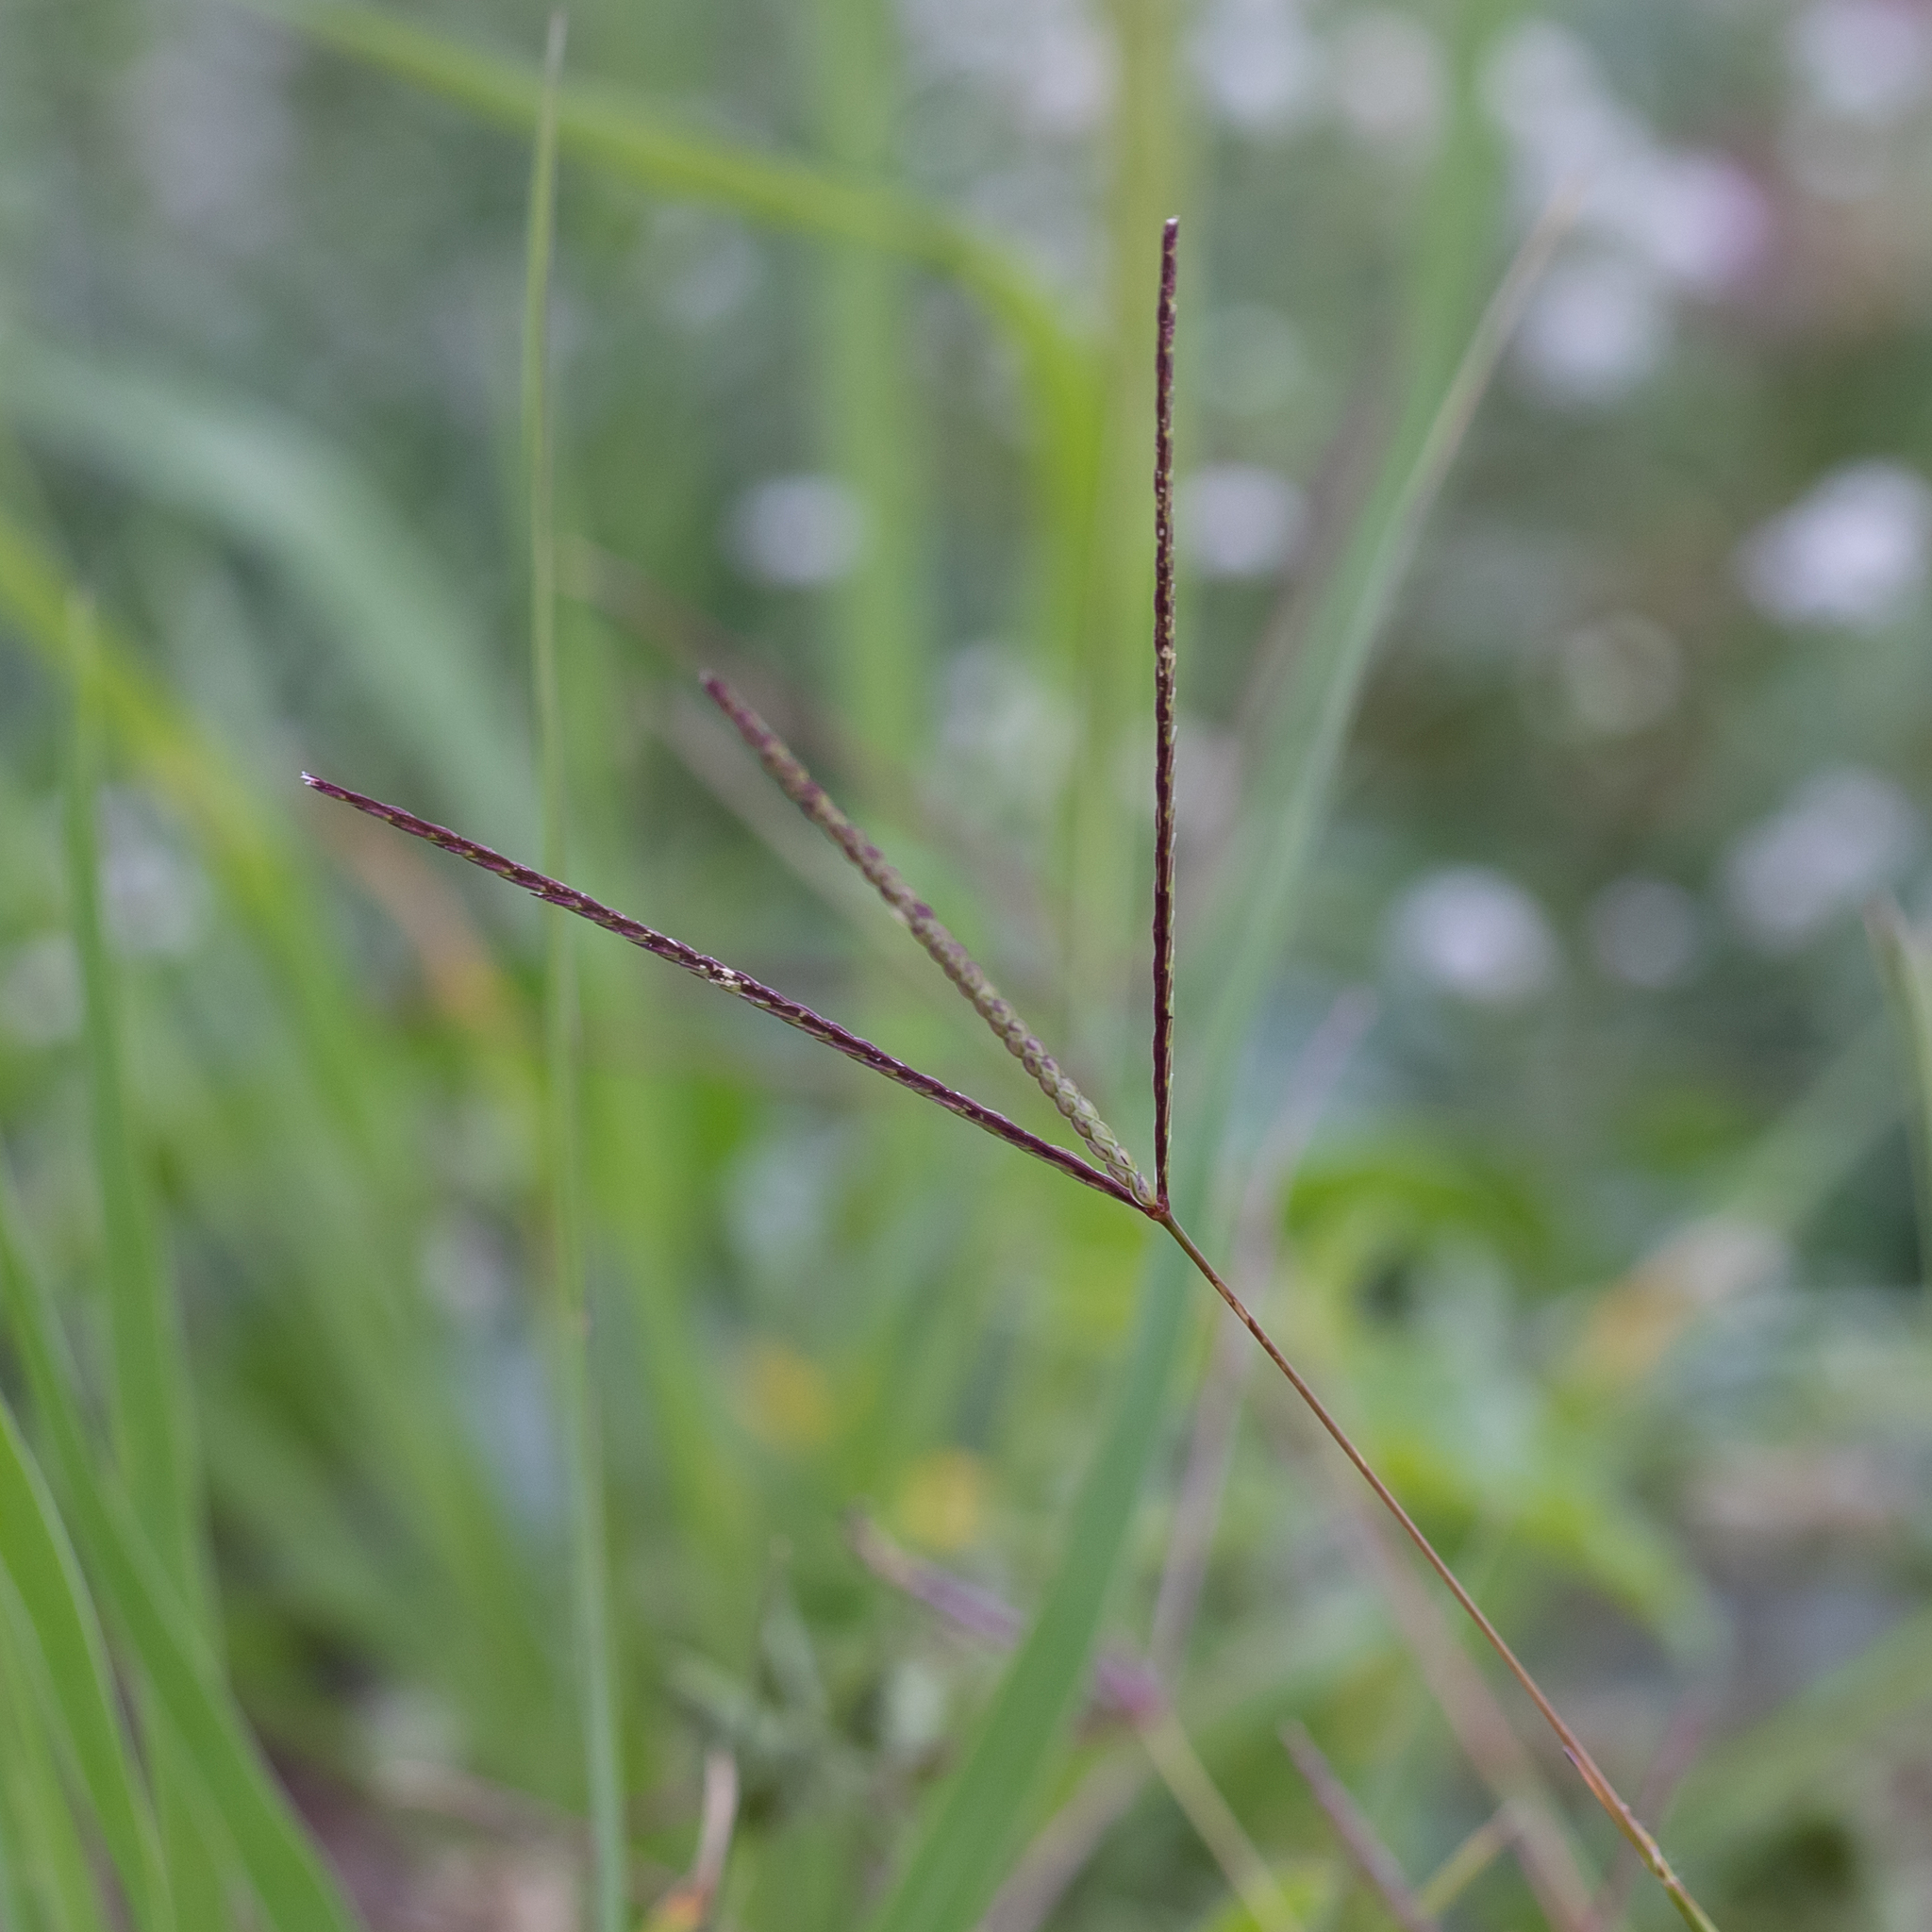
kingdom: Plantae
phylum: Tracheophyta
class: Liliopsida
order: Poales
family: Poaceae
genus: Cynodon
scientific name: Cynodon convergens
